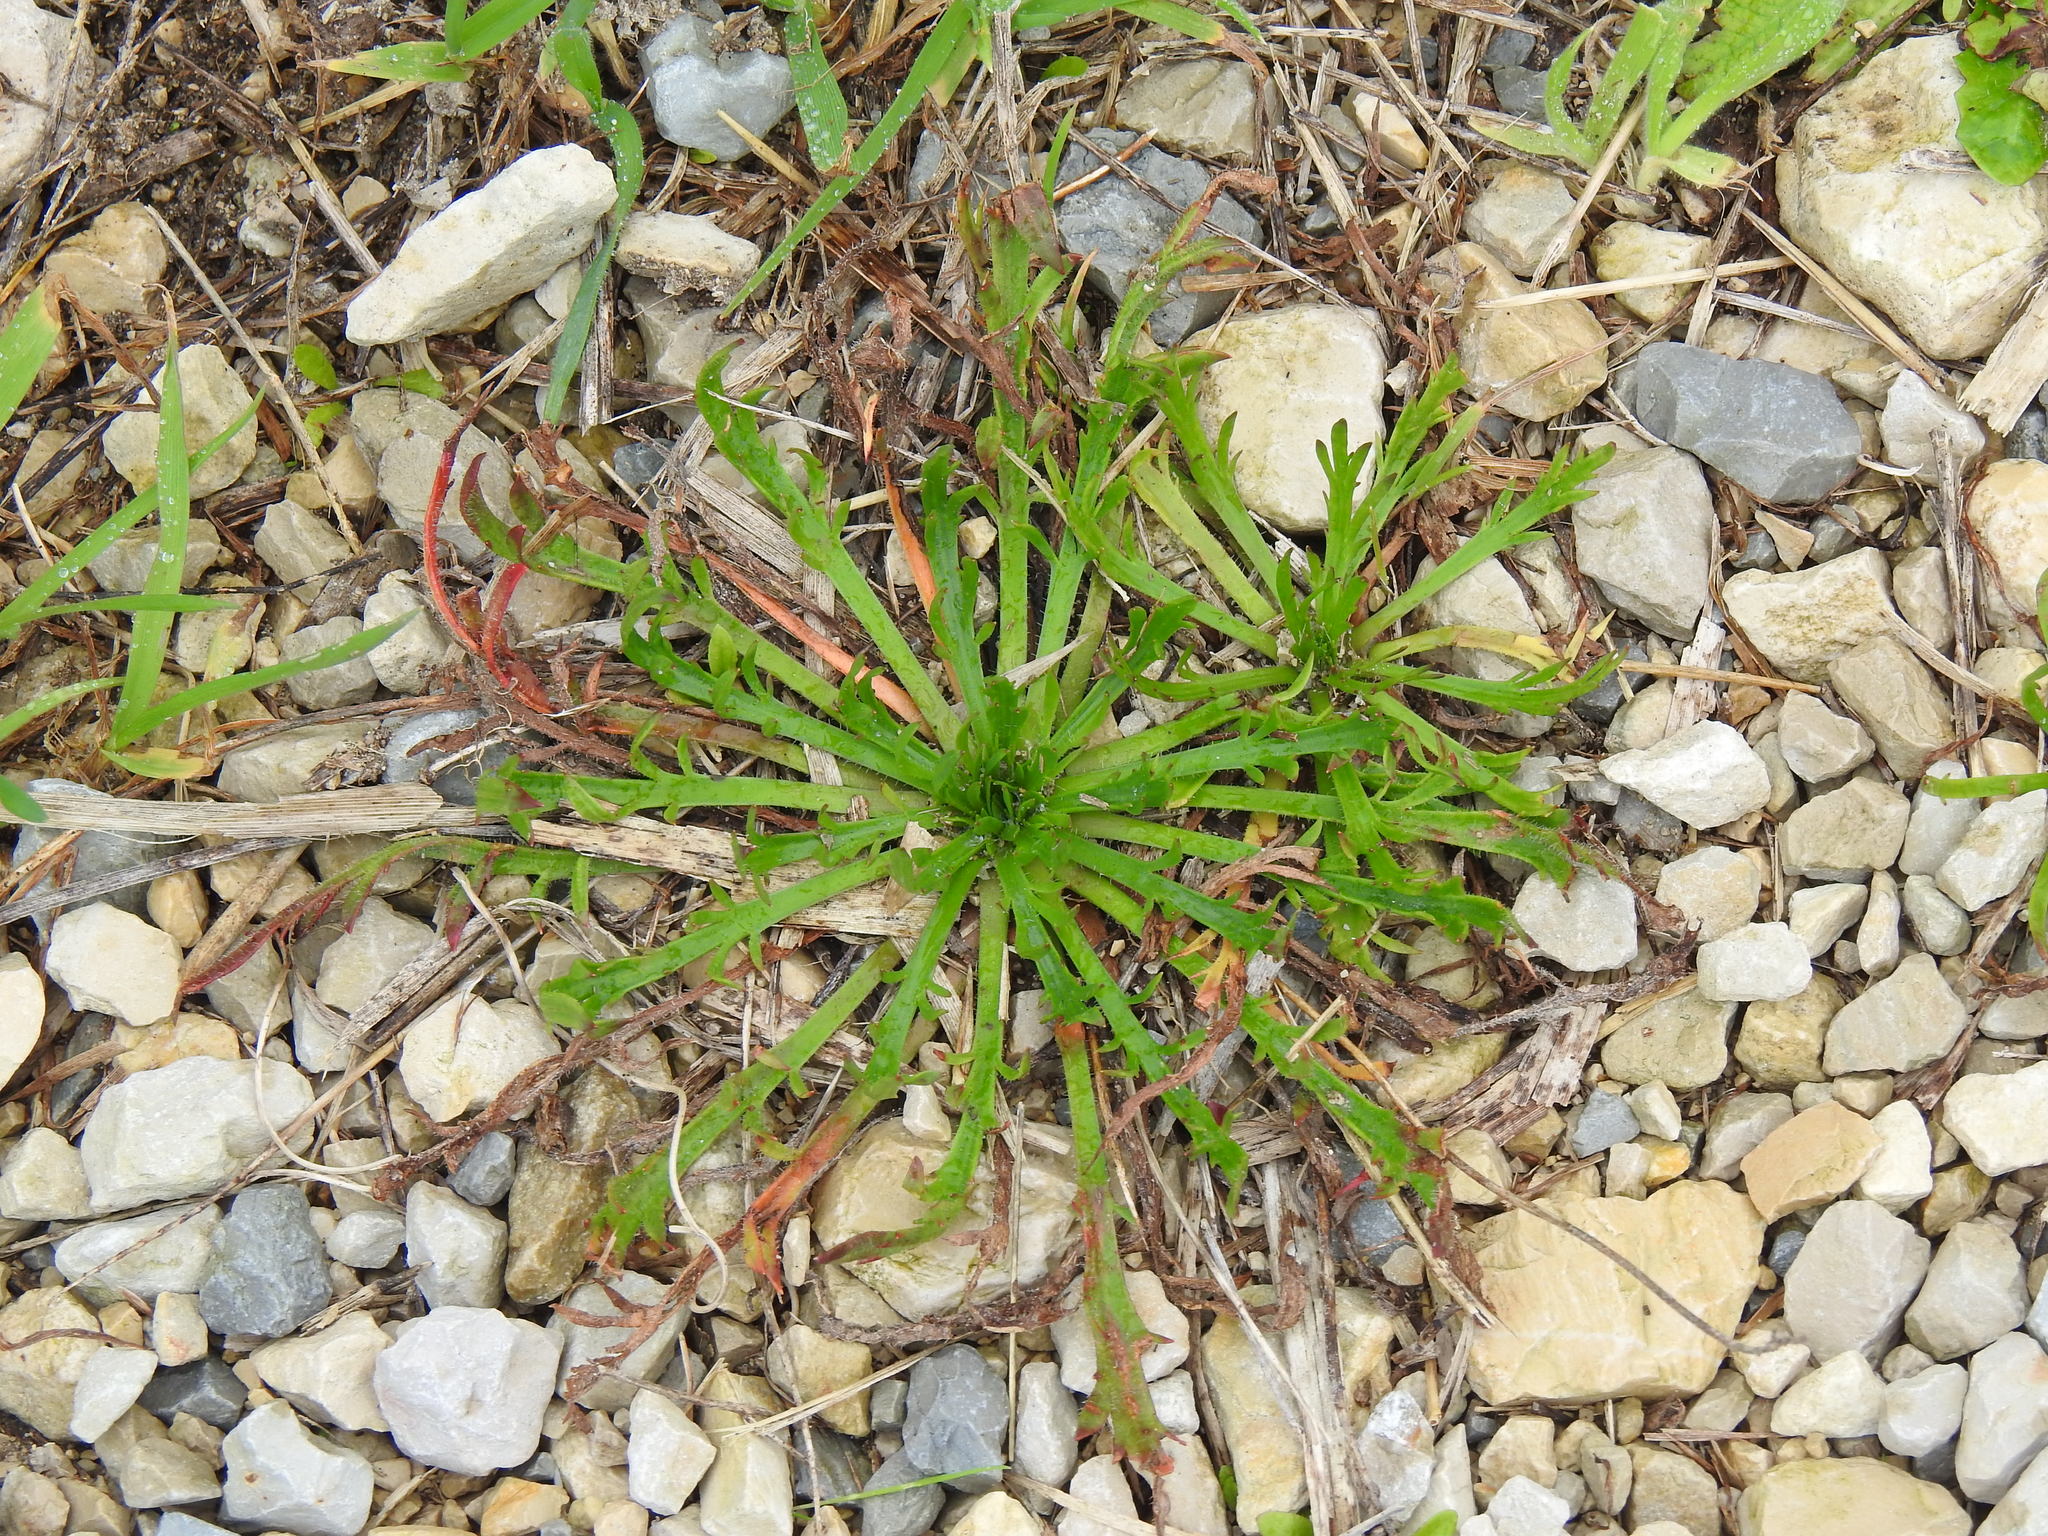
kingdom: Plantae
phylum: Tracheophyta
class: Magnoliopsida
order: Lamiales
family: Plantaginaceae
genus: Plantago
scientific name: Plantago coronopus
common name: Buck's-horn plantain
